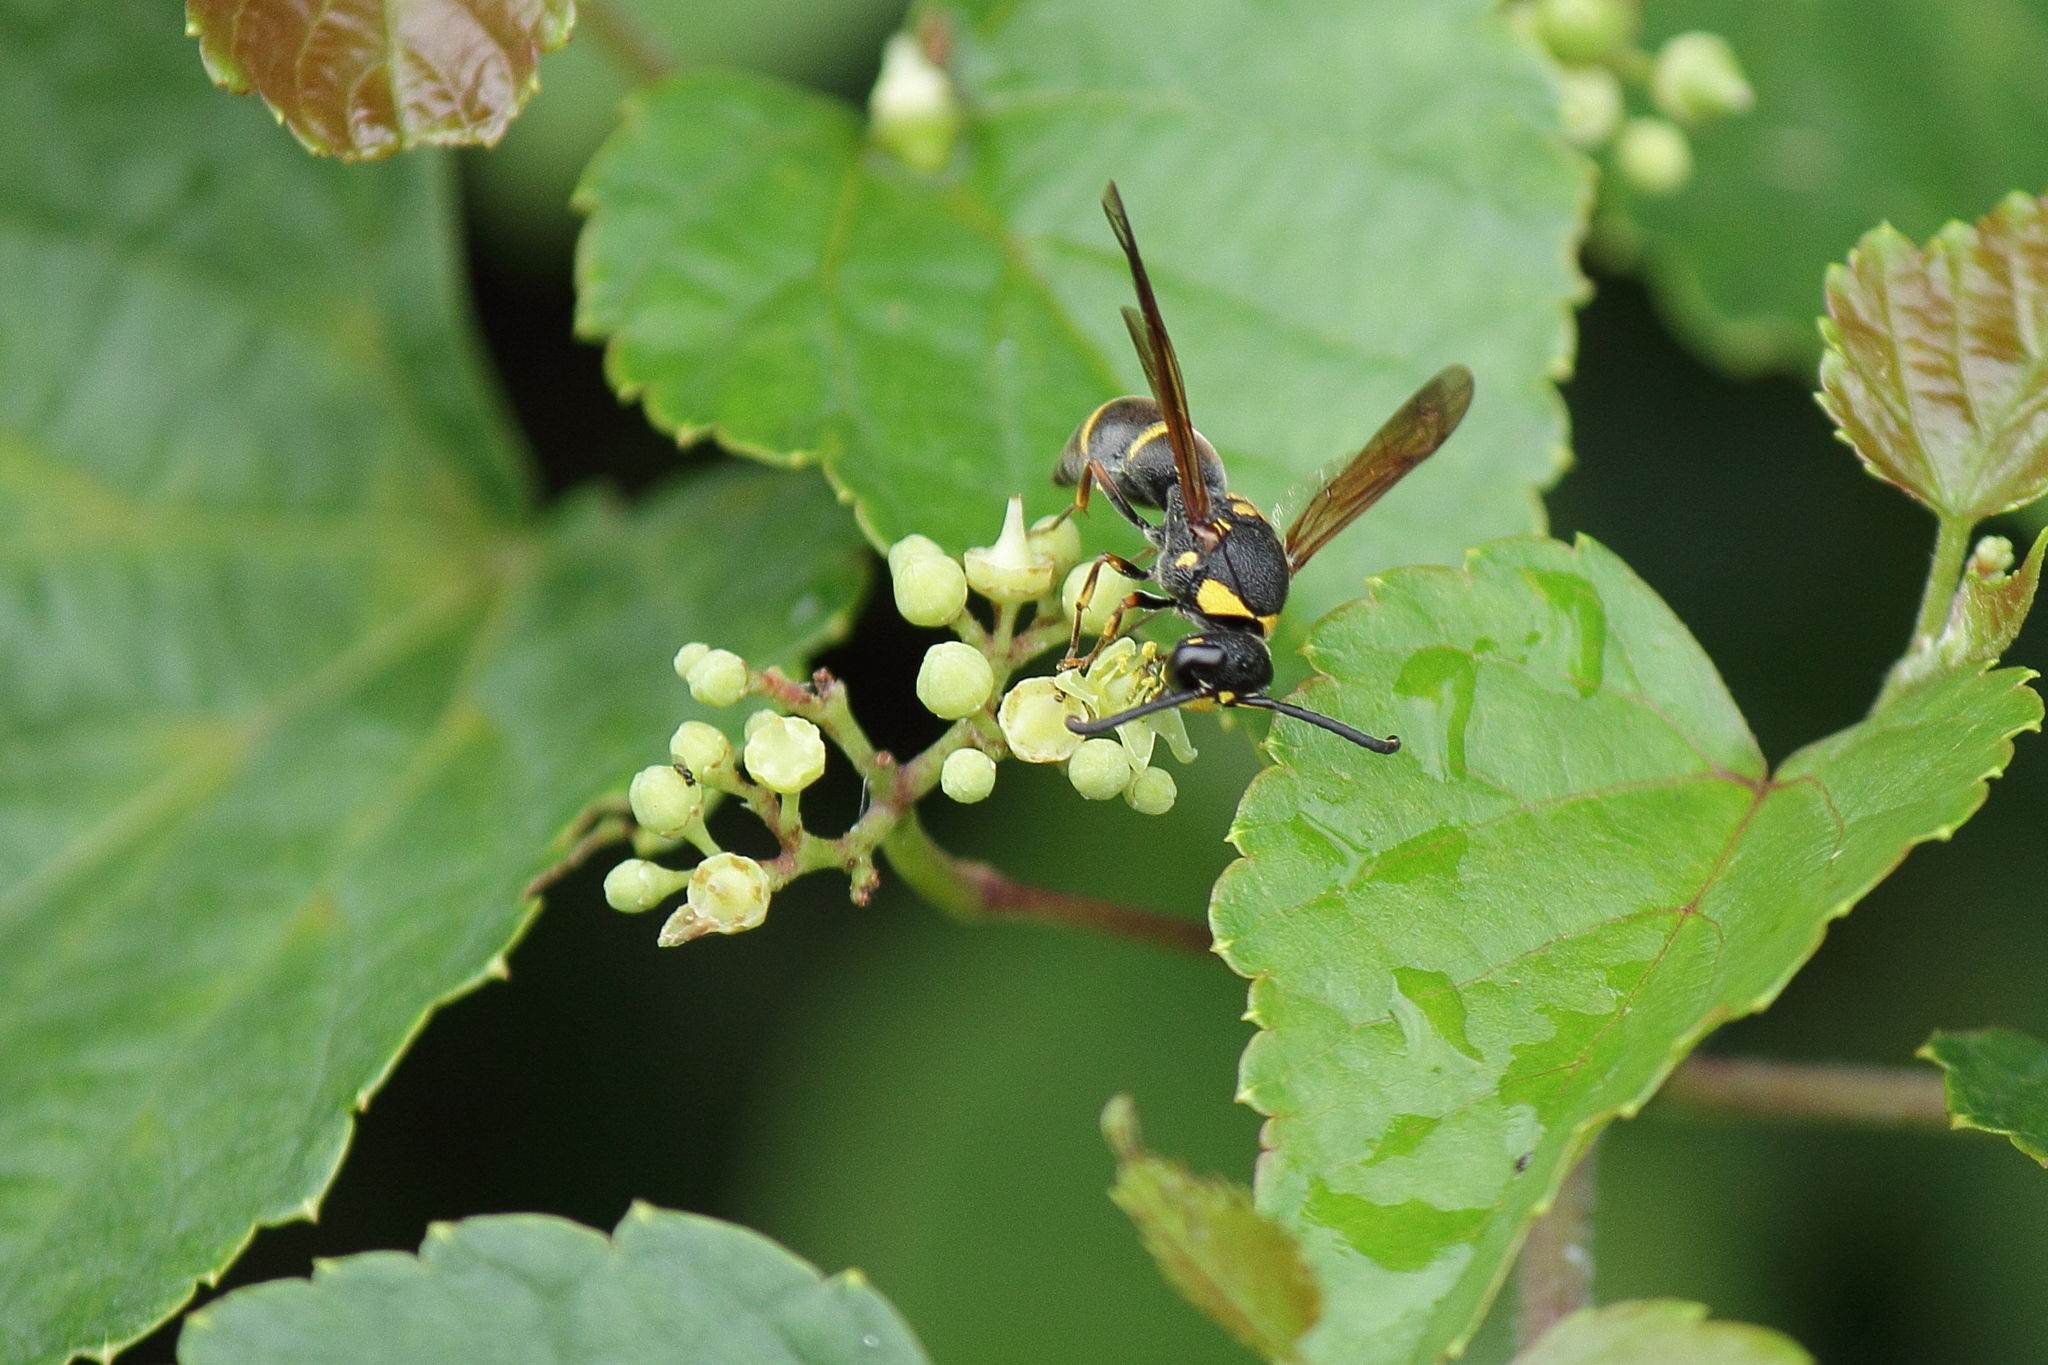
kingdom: Animalia
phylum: Arthropoda
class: Insecta
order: Hymenoptera
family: Eumenidae
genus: Anterhynchium
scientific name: Anterhynchium flavomarginatum
